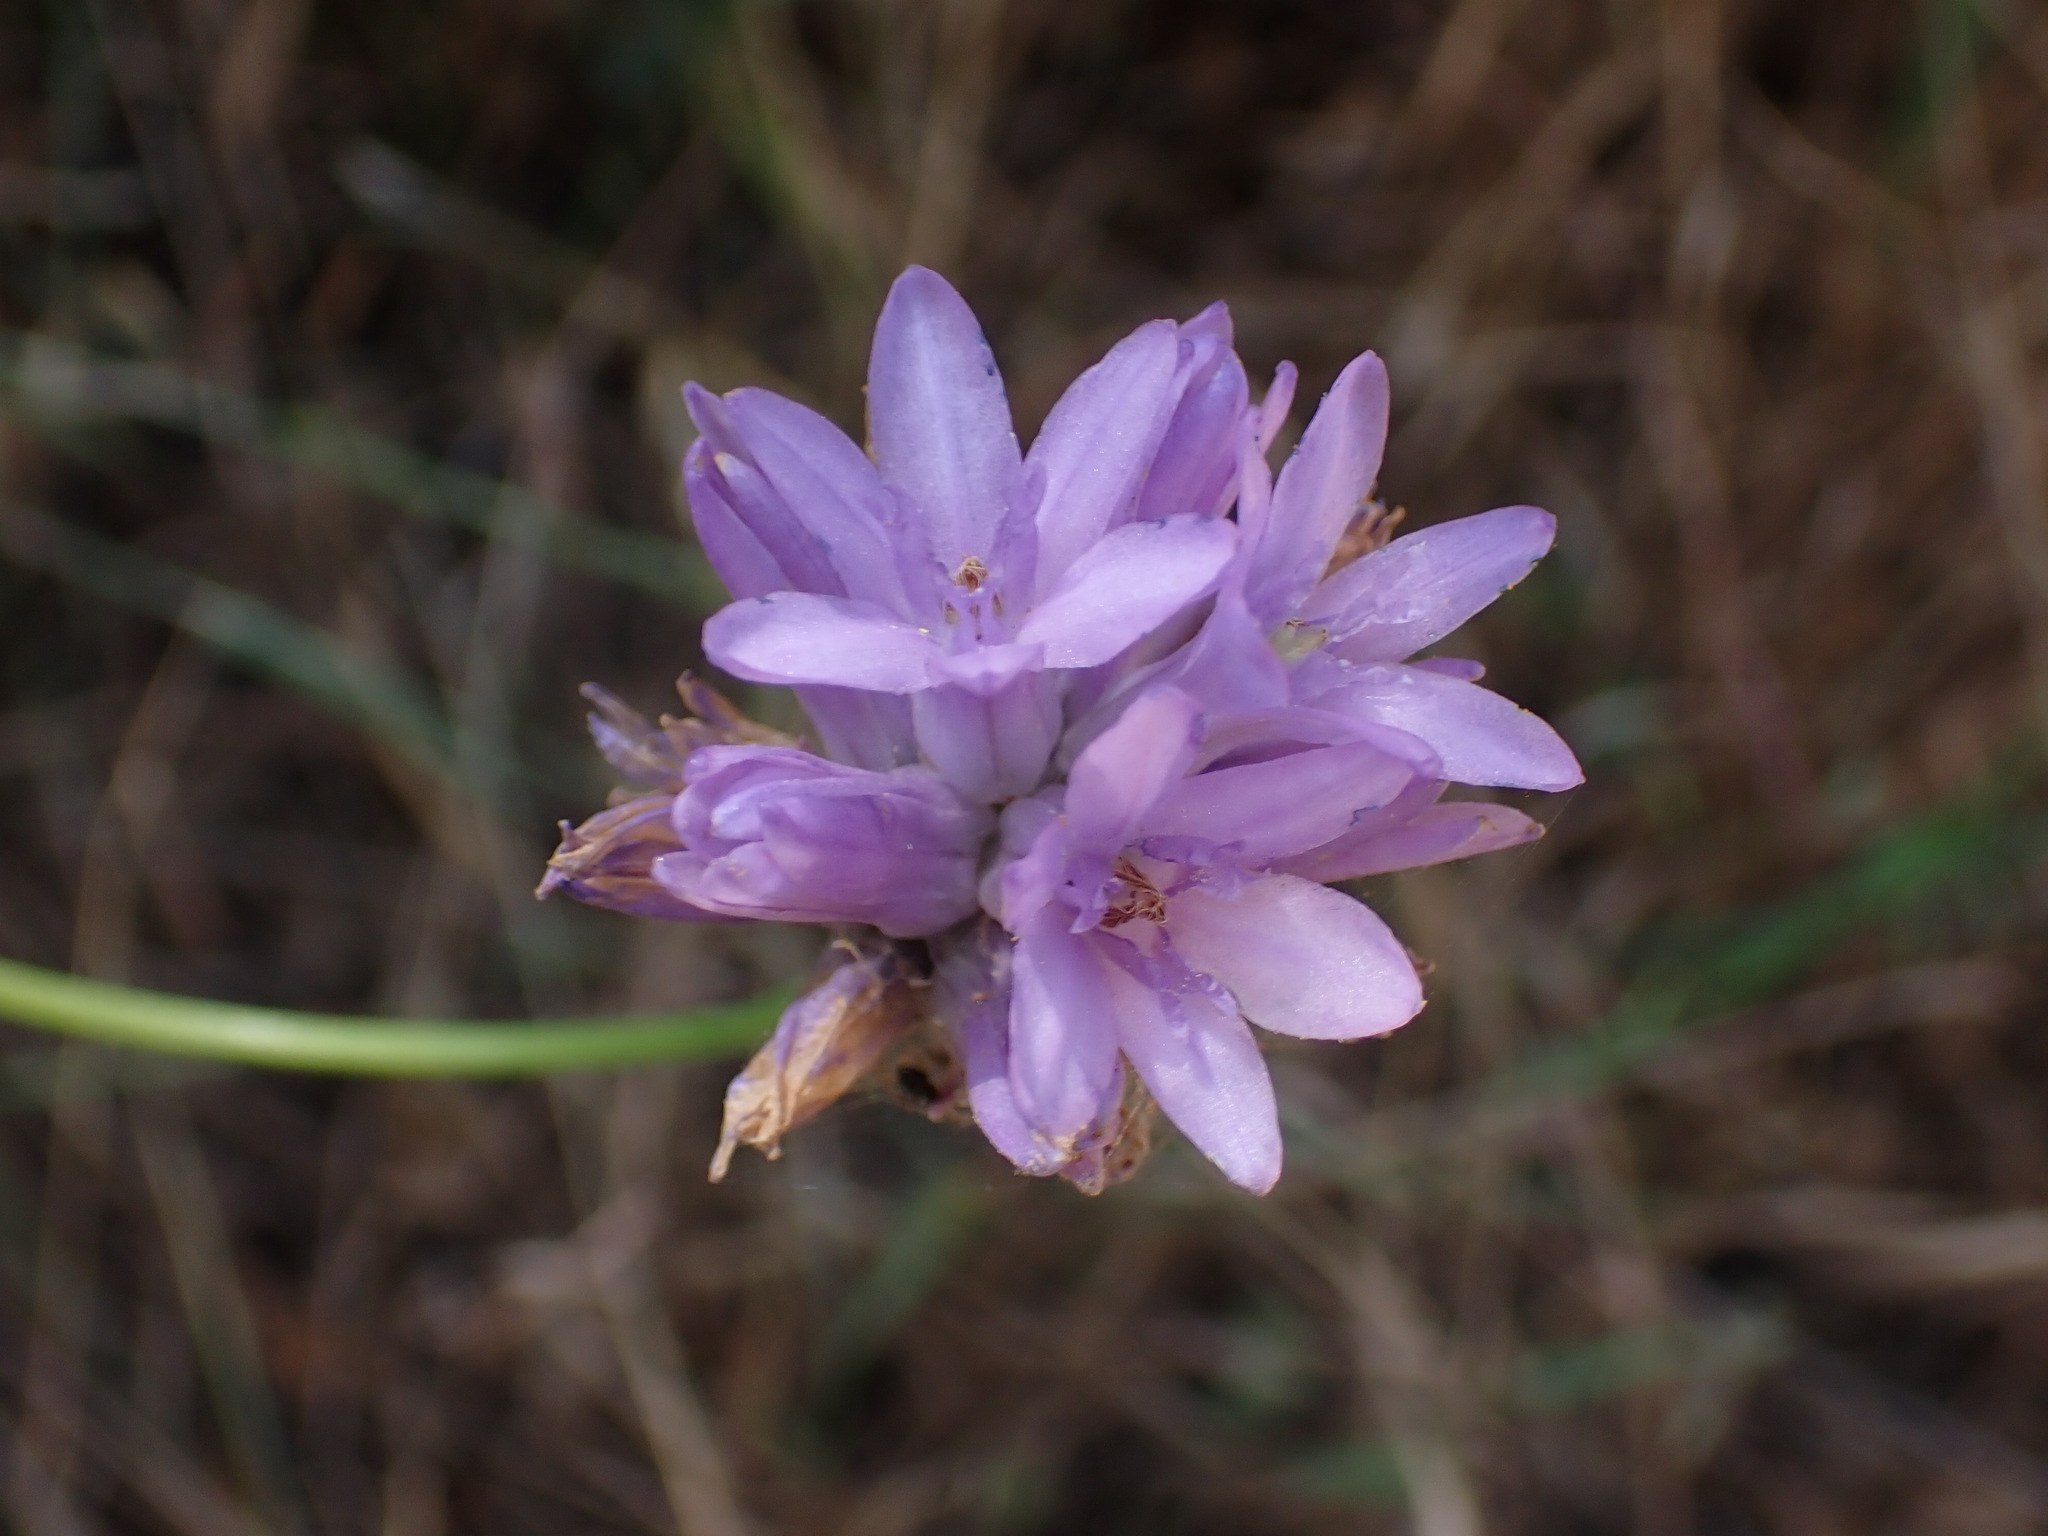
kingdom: Plantae
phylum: Tracheophyta
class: Liliopsida
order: Asparagales
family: Asparagaceae
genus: Dichelostemma
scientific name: Dichelostemma congestum
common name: Fork-tooth ookow
